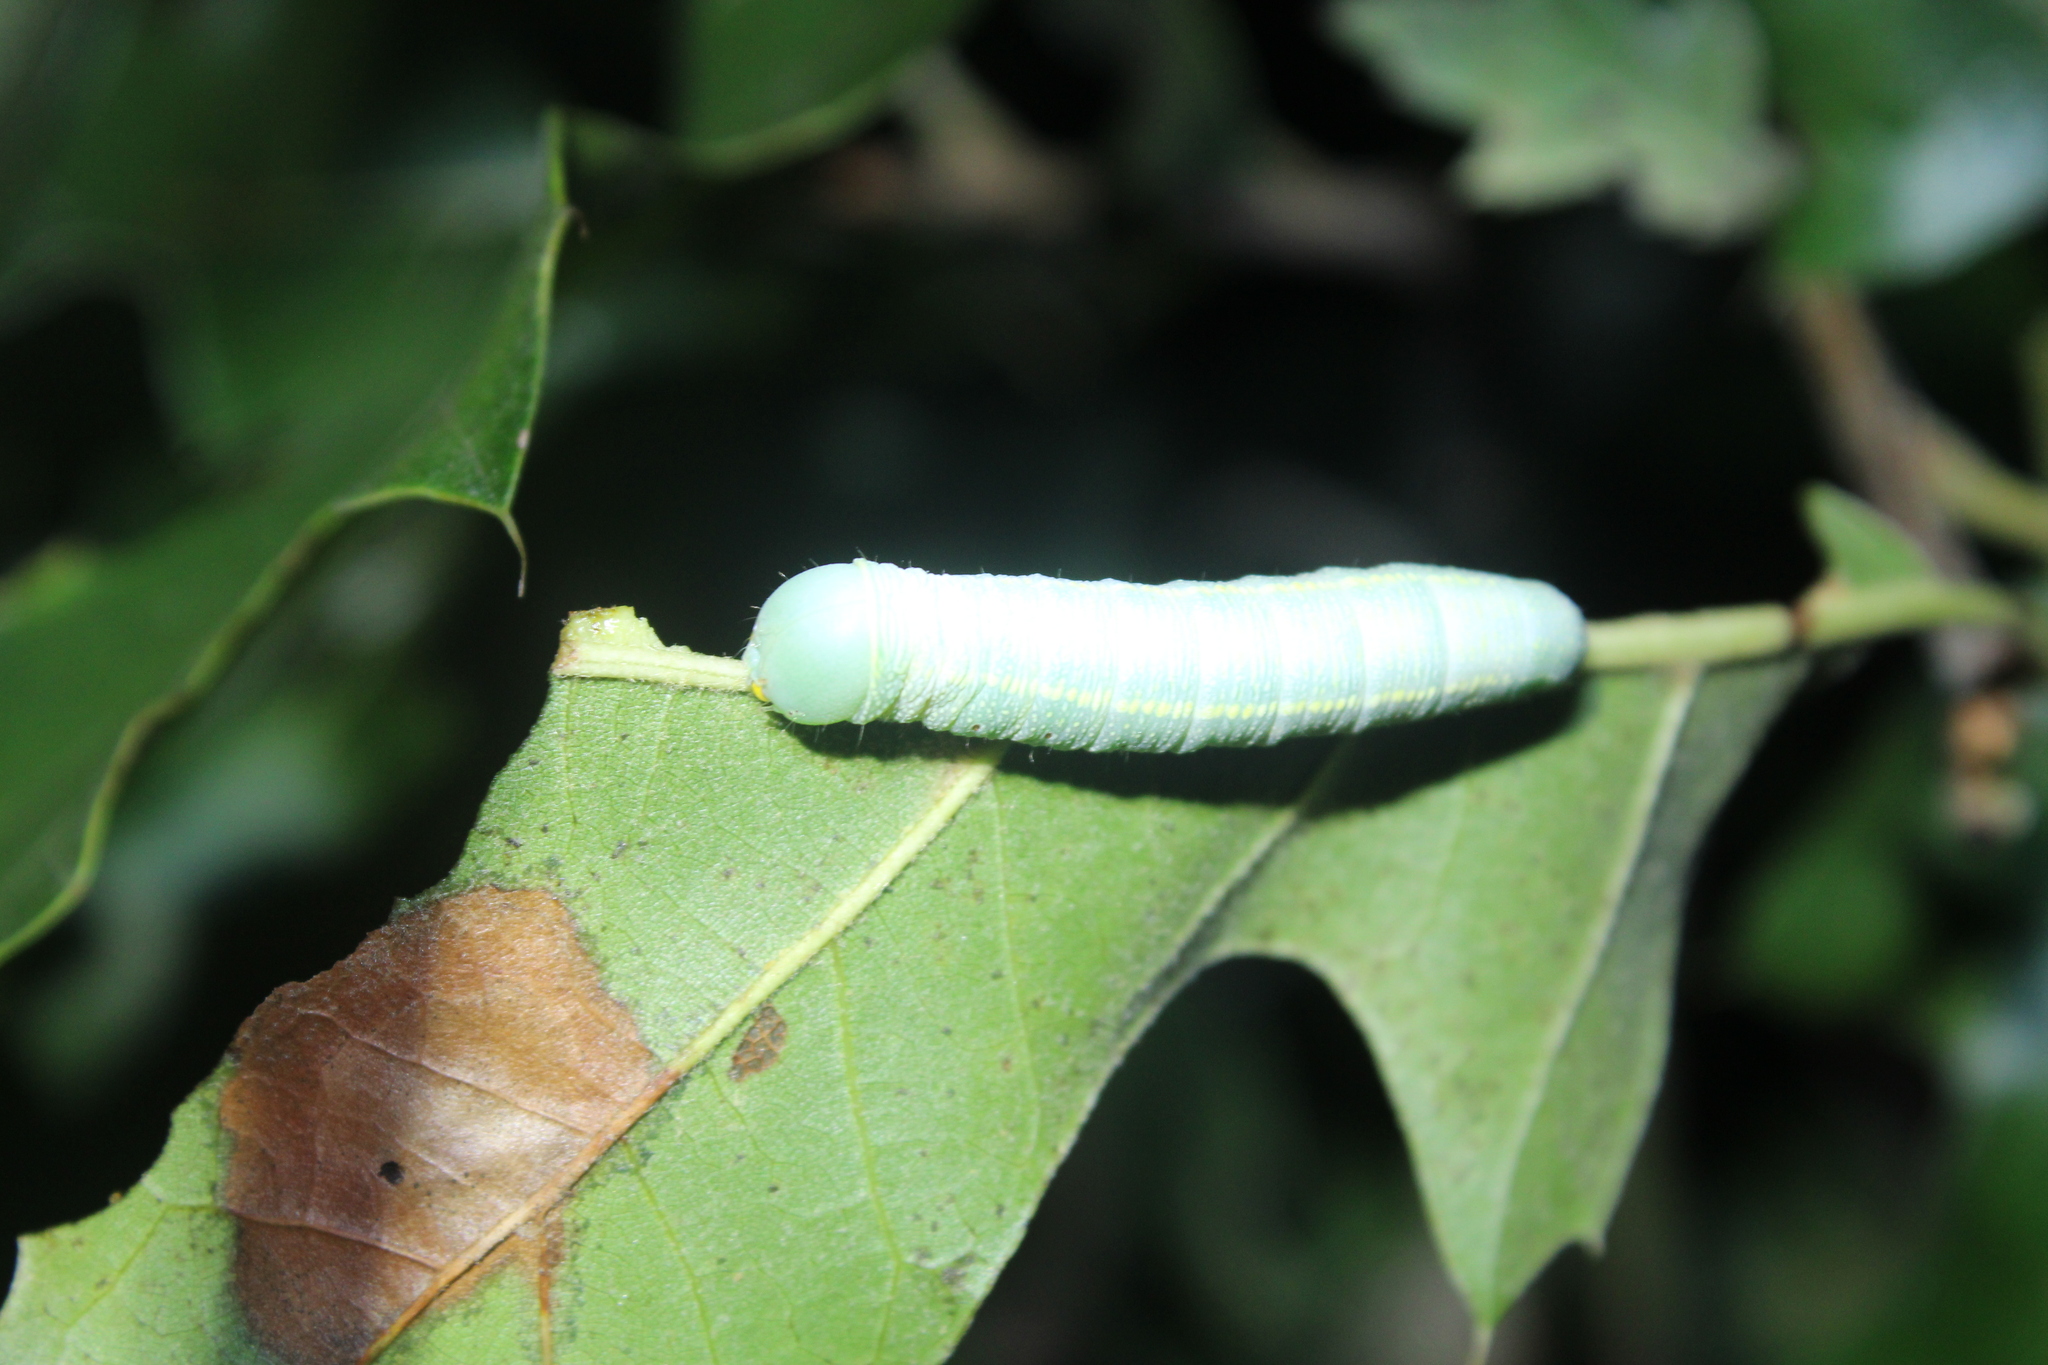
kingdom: Animalia
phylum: Arthropoda
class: Insecta
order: Lepidoptera
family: Notodontidae
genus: Nadata
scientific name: Nadata gibbosa
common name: White-dotted prominent
